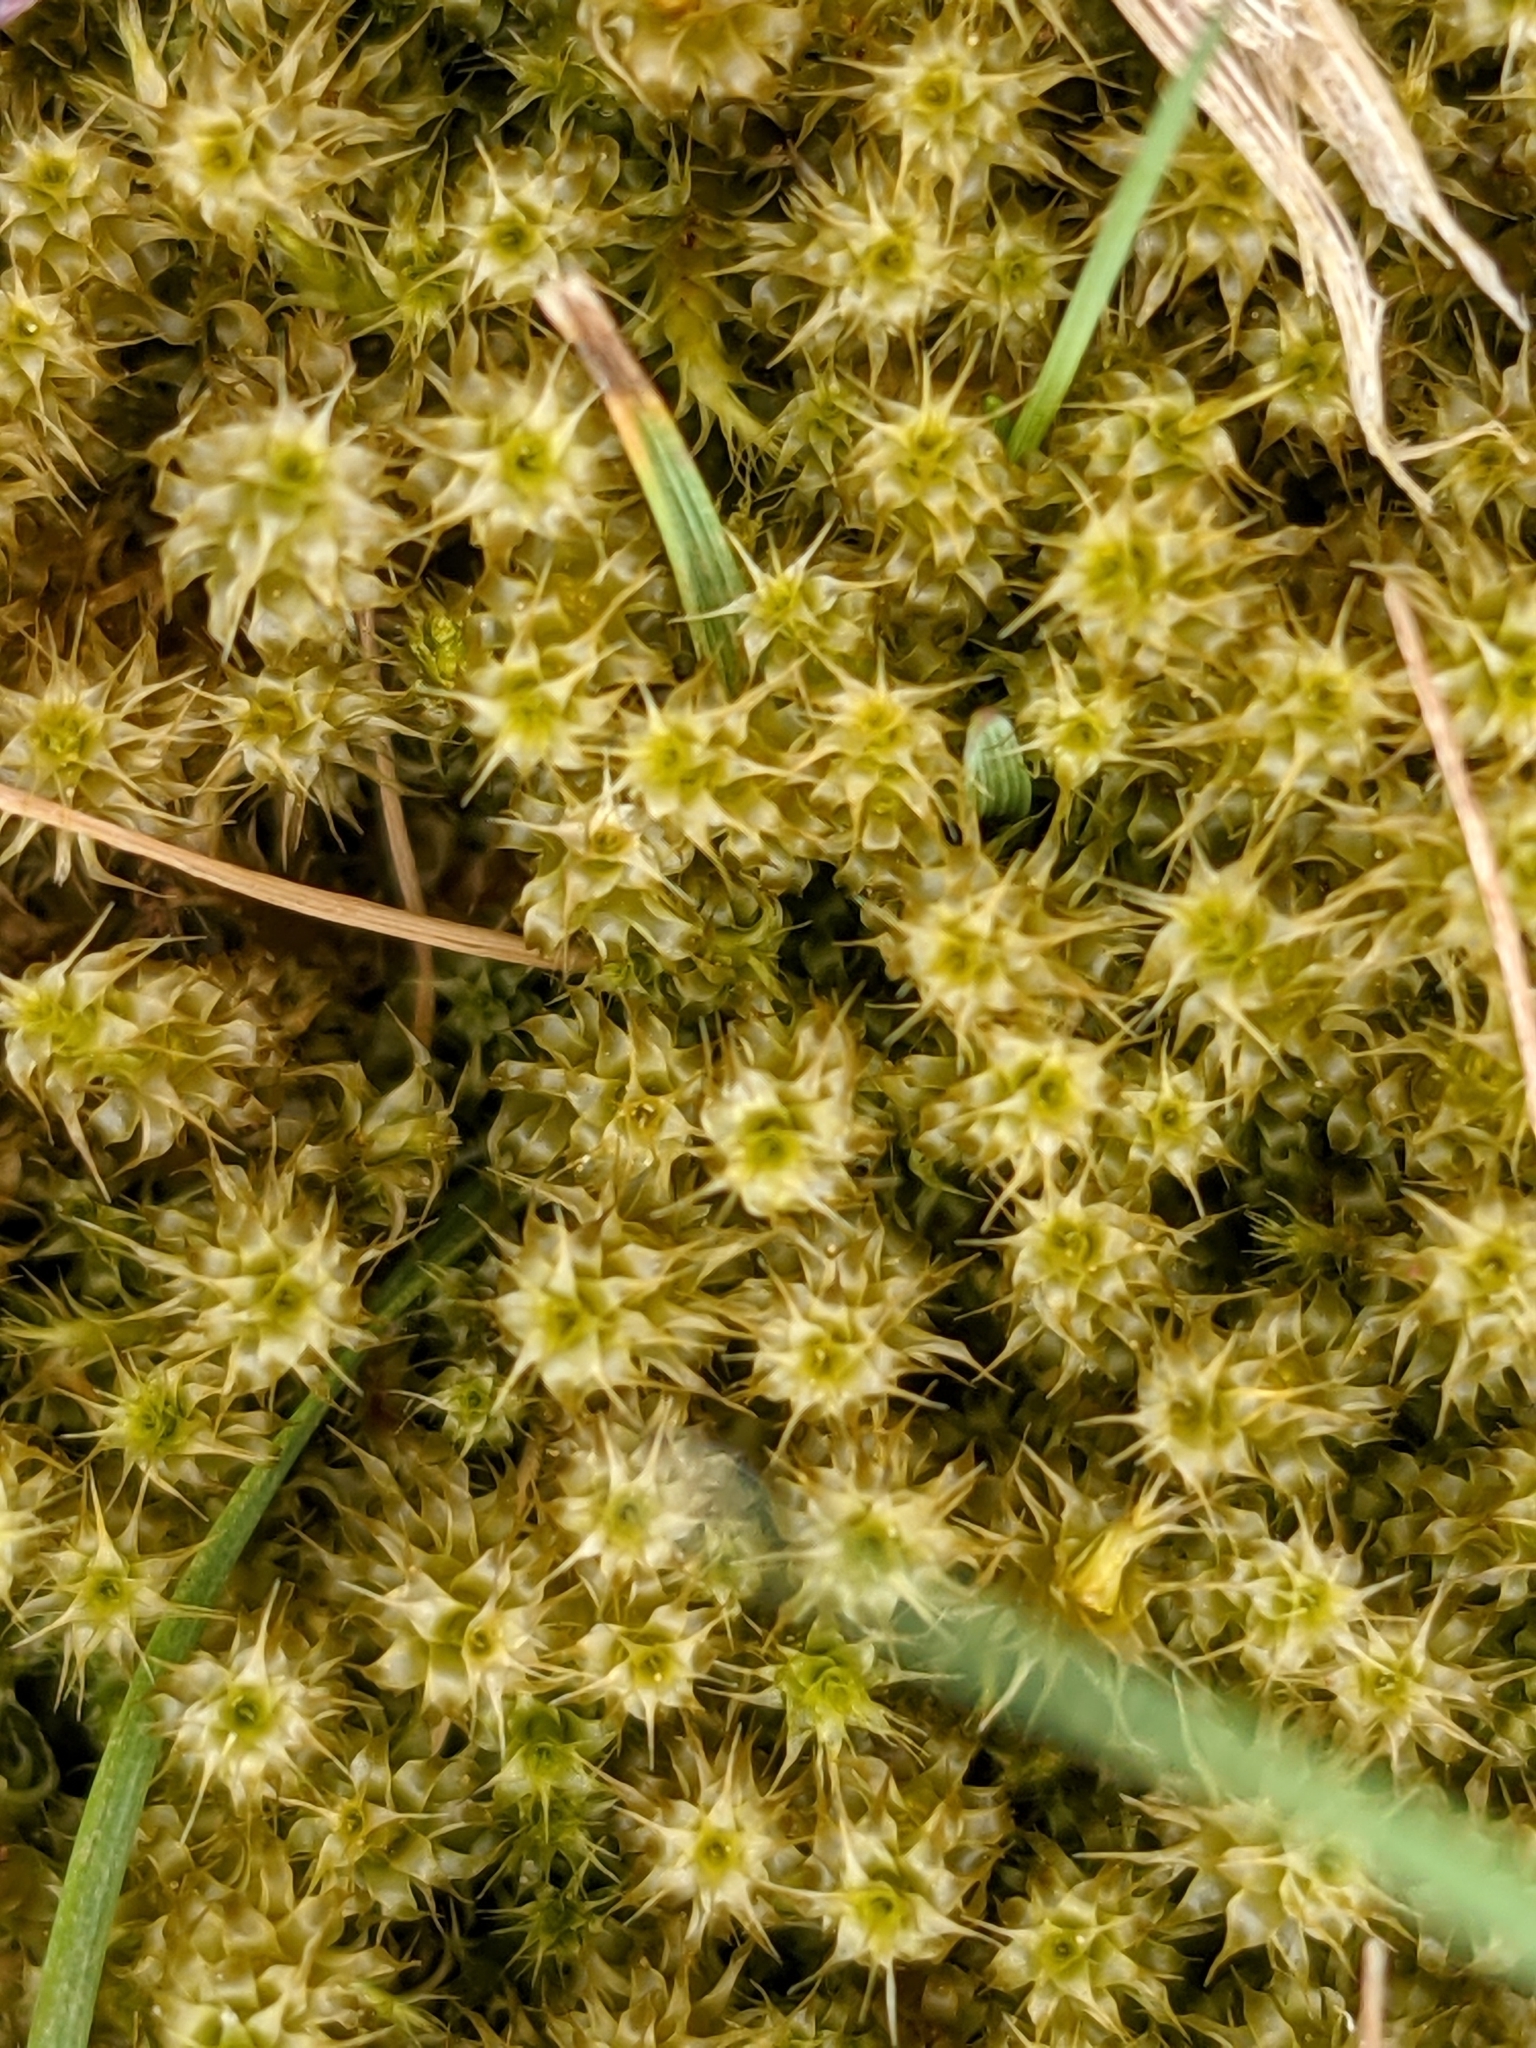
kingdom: Plantae
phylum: Bryophyta
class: Bryopsida
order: Hypnales
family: Hylocomiaceae
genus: Rhytidiadelphus
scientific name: Rhytidiadelphus squarrosus
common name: Springy turf-moss
